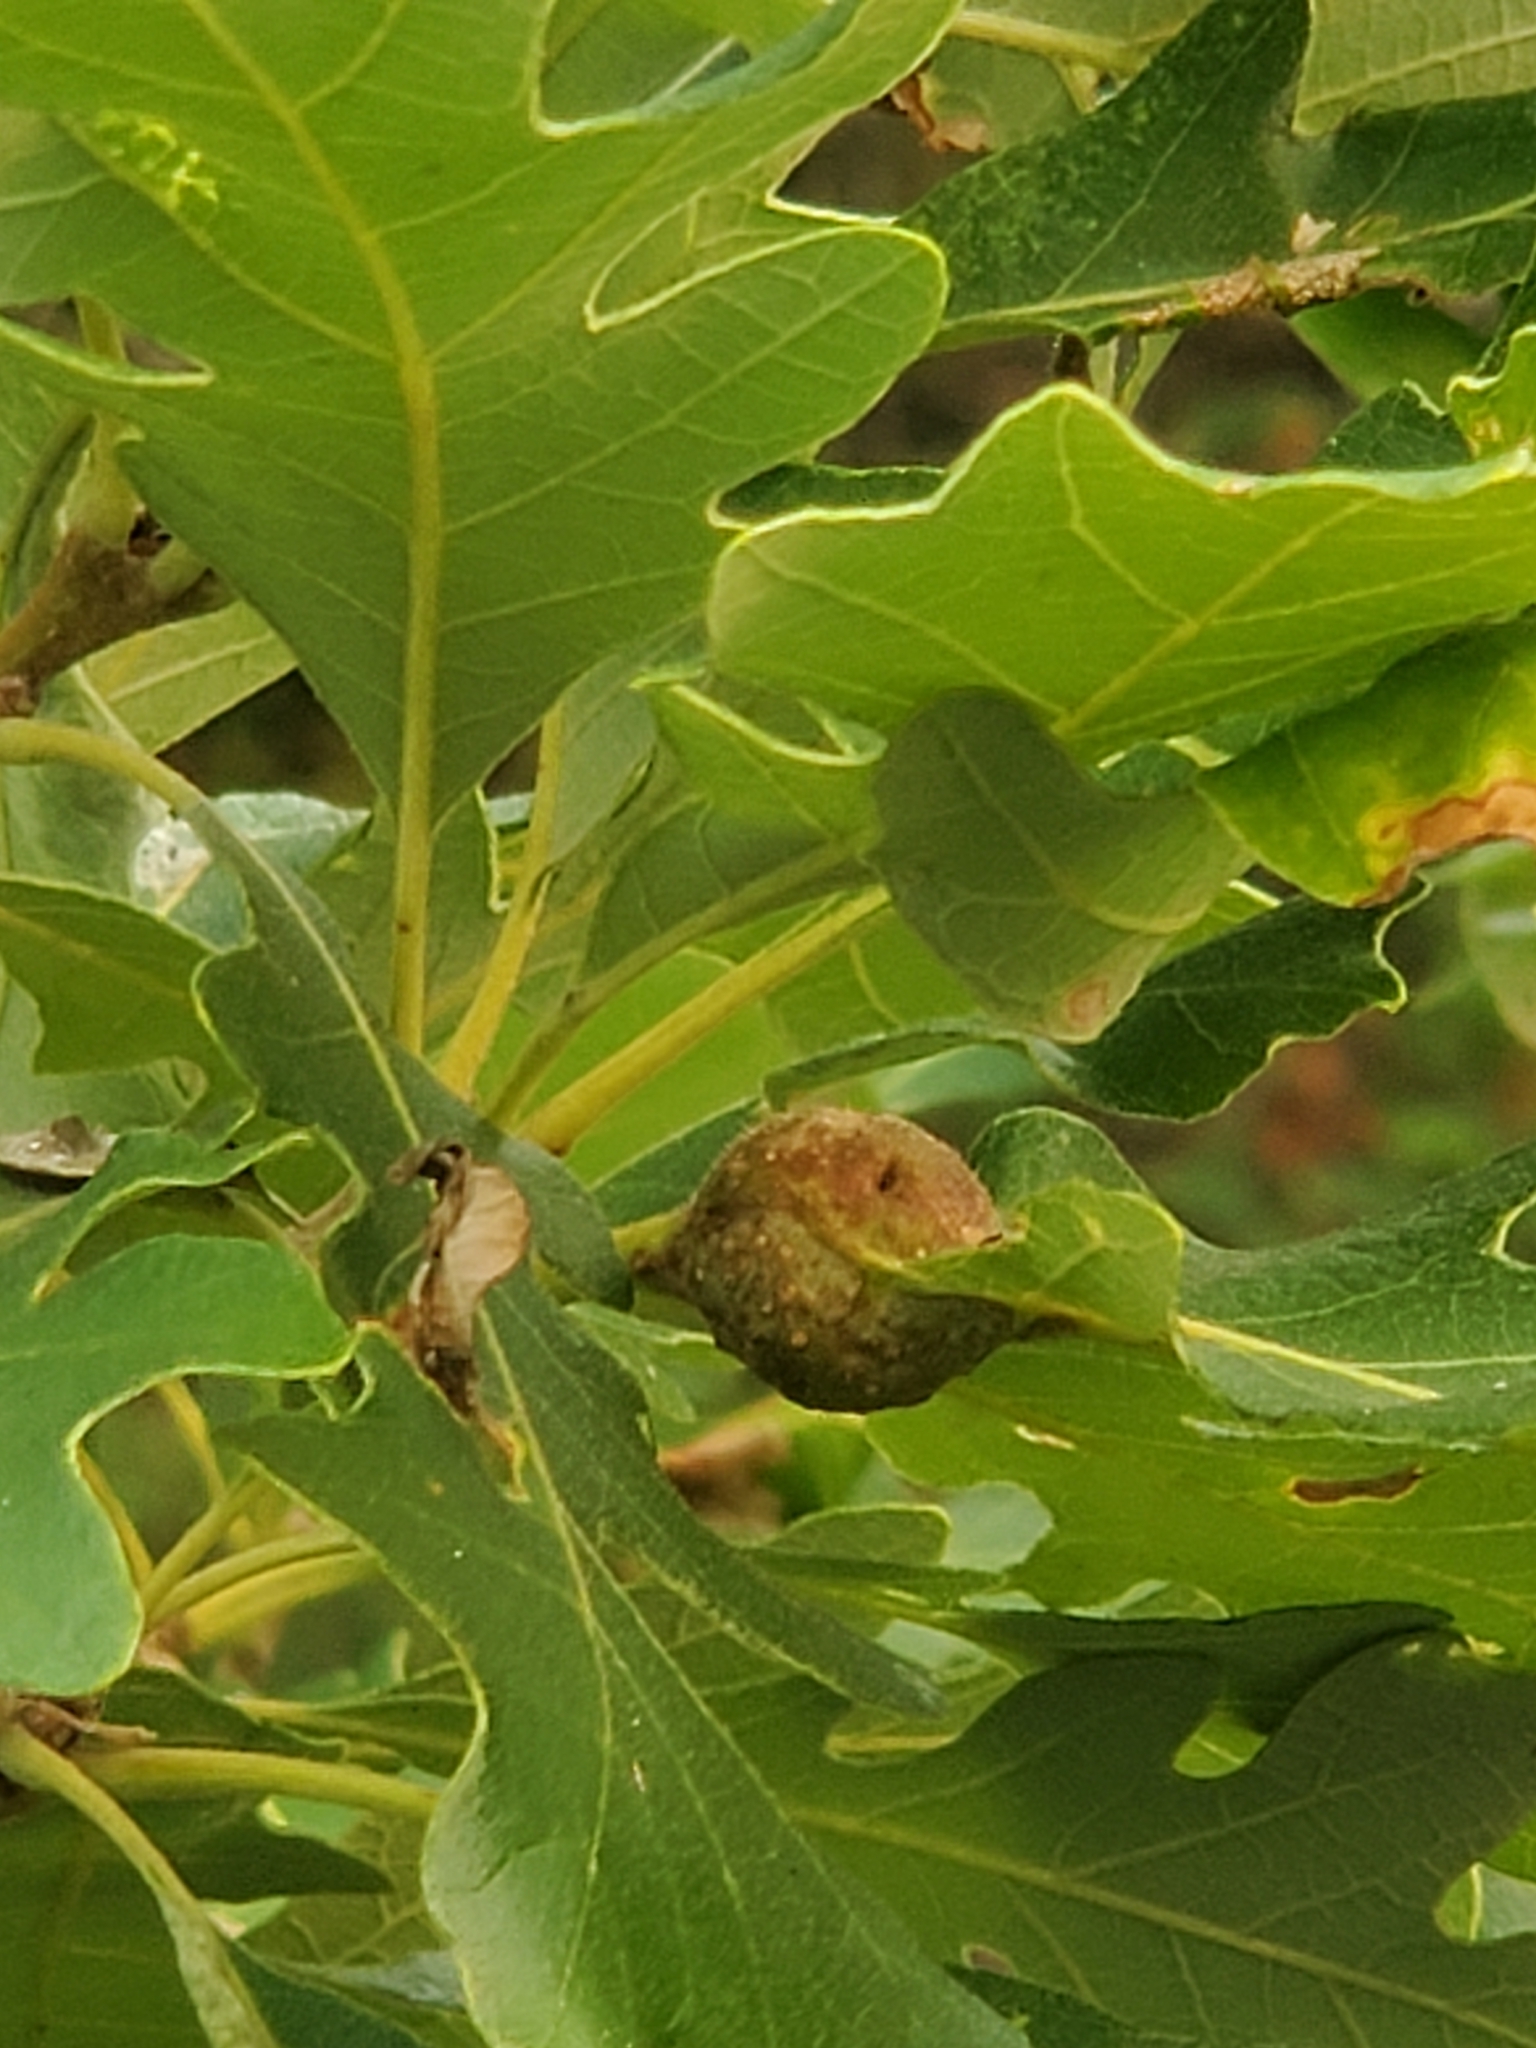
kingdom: Animalia
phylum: Arthropoda
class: Insecta
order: Hymenoptera
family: Cynipidae
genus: Andricus
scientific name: Andricus
